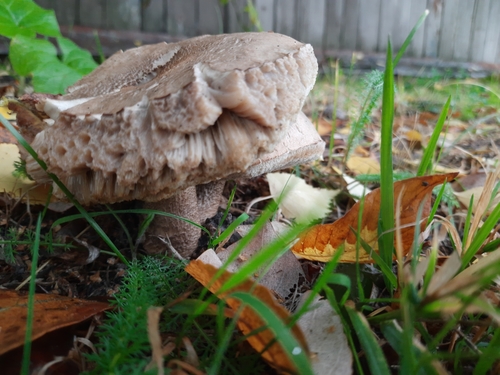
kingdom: Fungi
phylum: Basidiomycota
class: Agaricomycetes
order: Boletales
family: Boletaceae
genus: Leccinum
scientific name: Leccinum scabrum
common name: Blushing bolete
